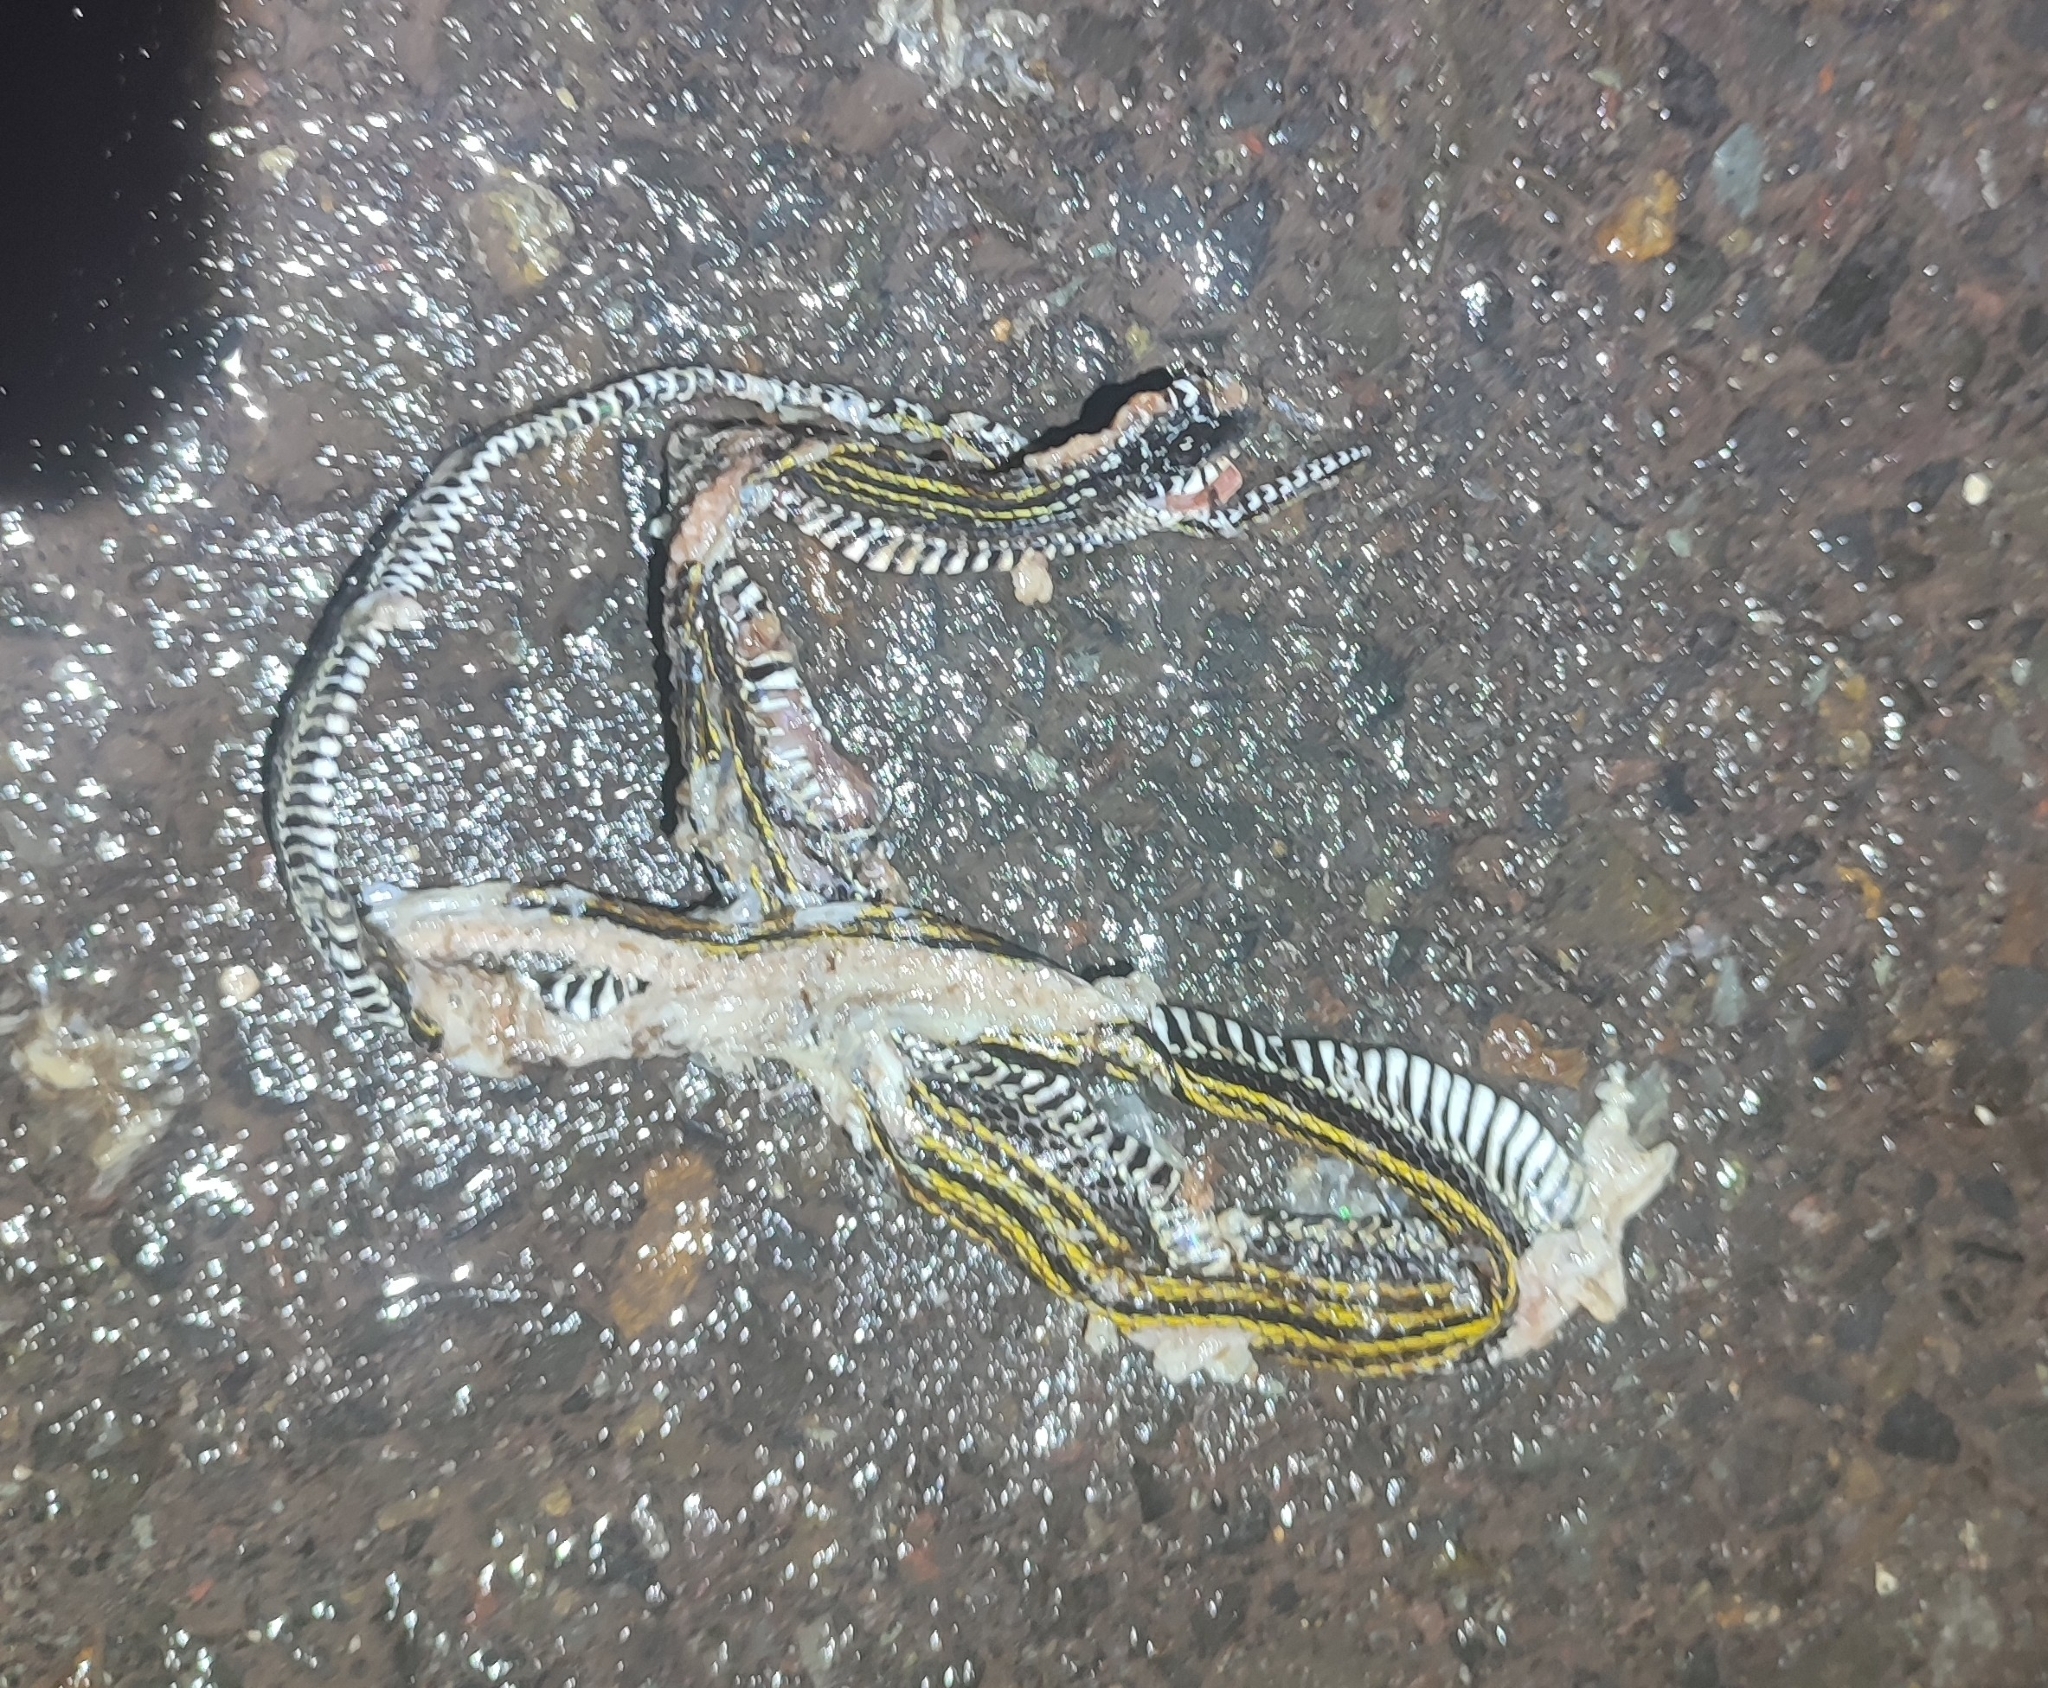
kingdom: Animalia
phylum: Chordata
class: Squamata
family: Colubridae
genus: Xenochrophis
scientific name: Xenochrophis vittatus
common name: Striped keelback
